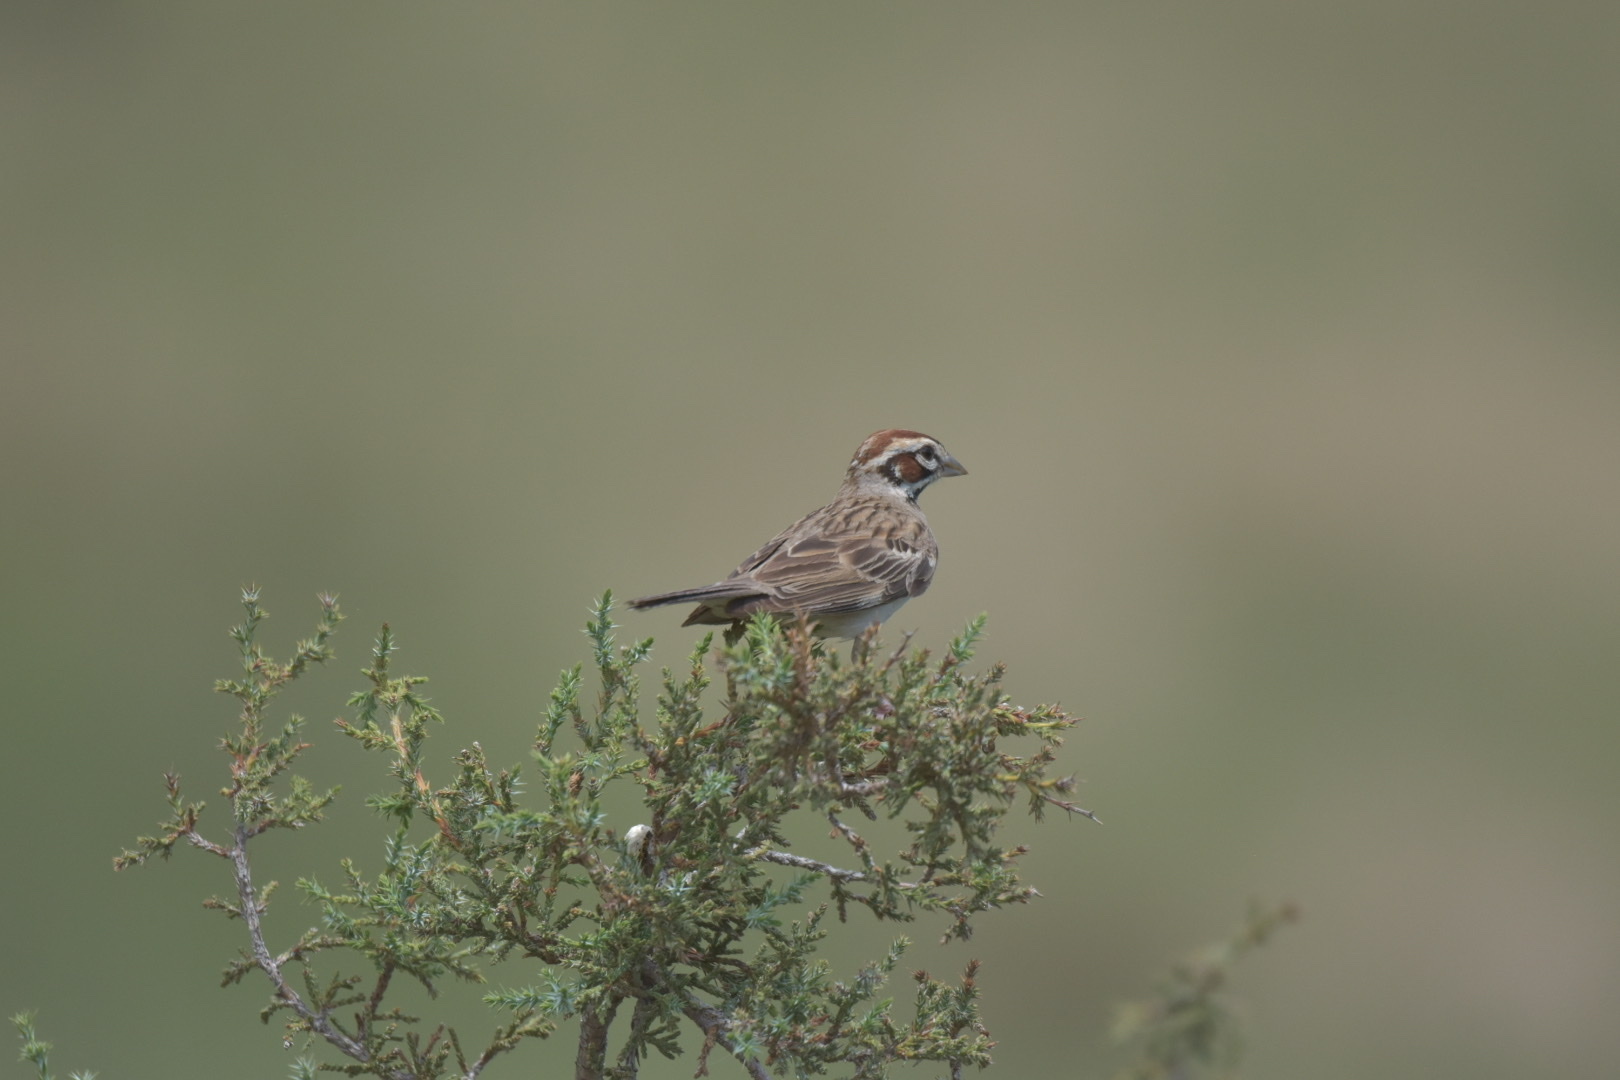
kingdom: Animalia
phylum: Chordata
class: Aves
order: Passeriformes
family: Passerellidae
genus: Chondestes
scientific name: Chondestes grammacus
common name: Lark sparrow
